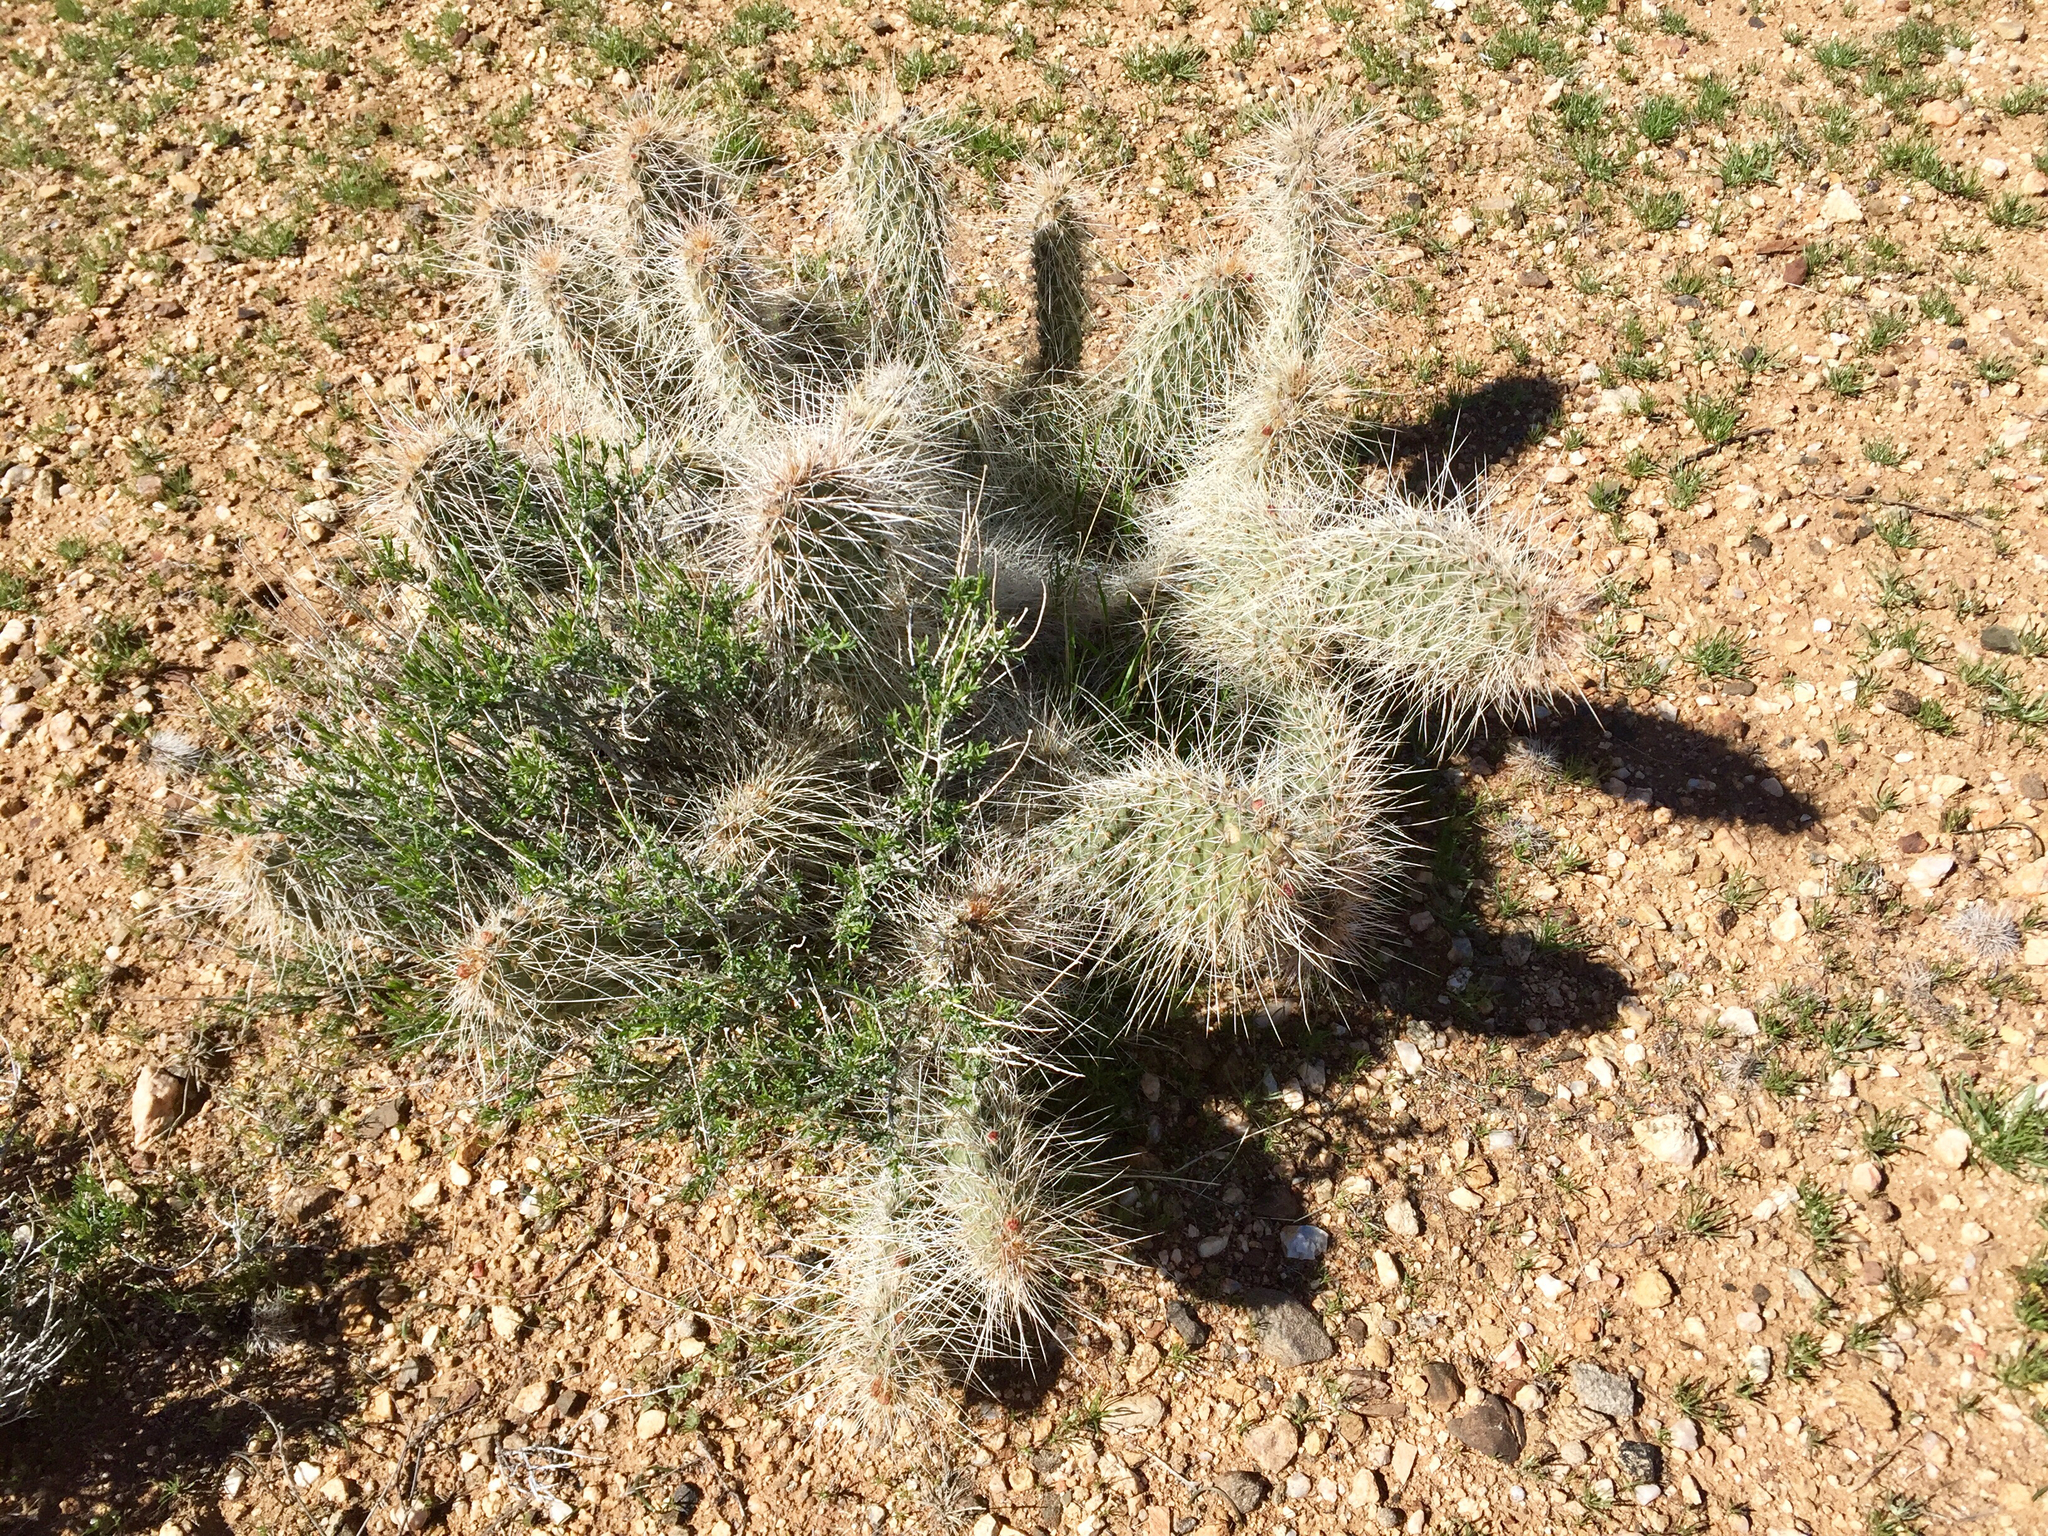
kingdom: Plantae
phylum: Tracheophyta
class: Magnoliopsida
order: Caryophyllales
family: Cactaceae
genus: Opuntia
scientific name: Opuntia polyacantha
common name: Plains prickly-pear
